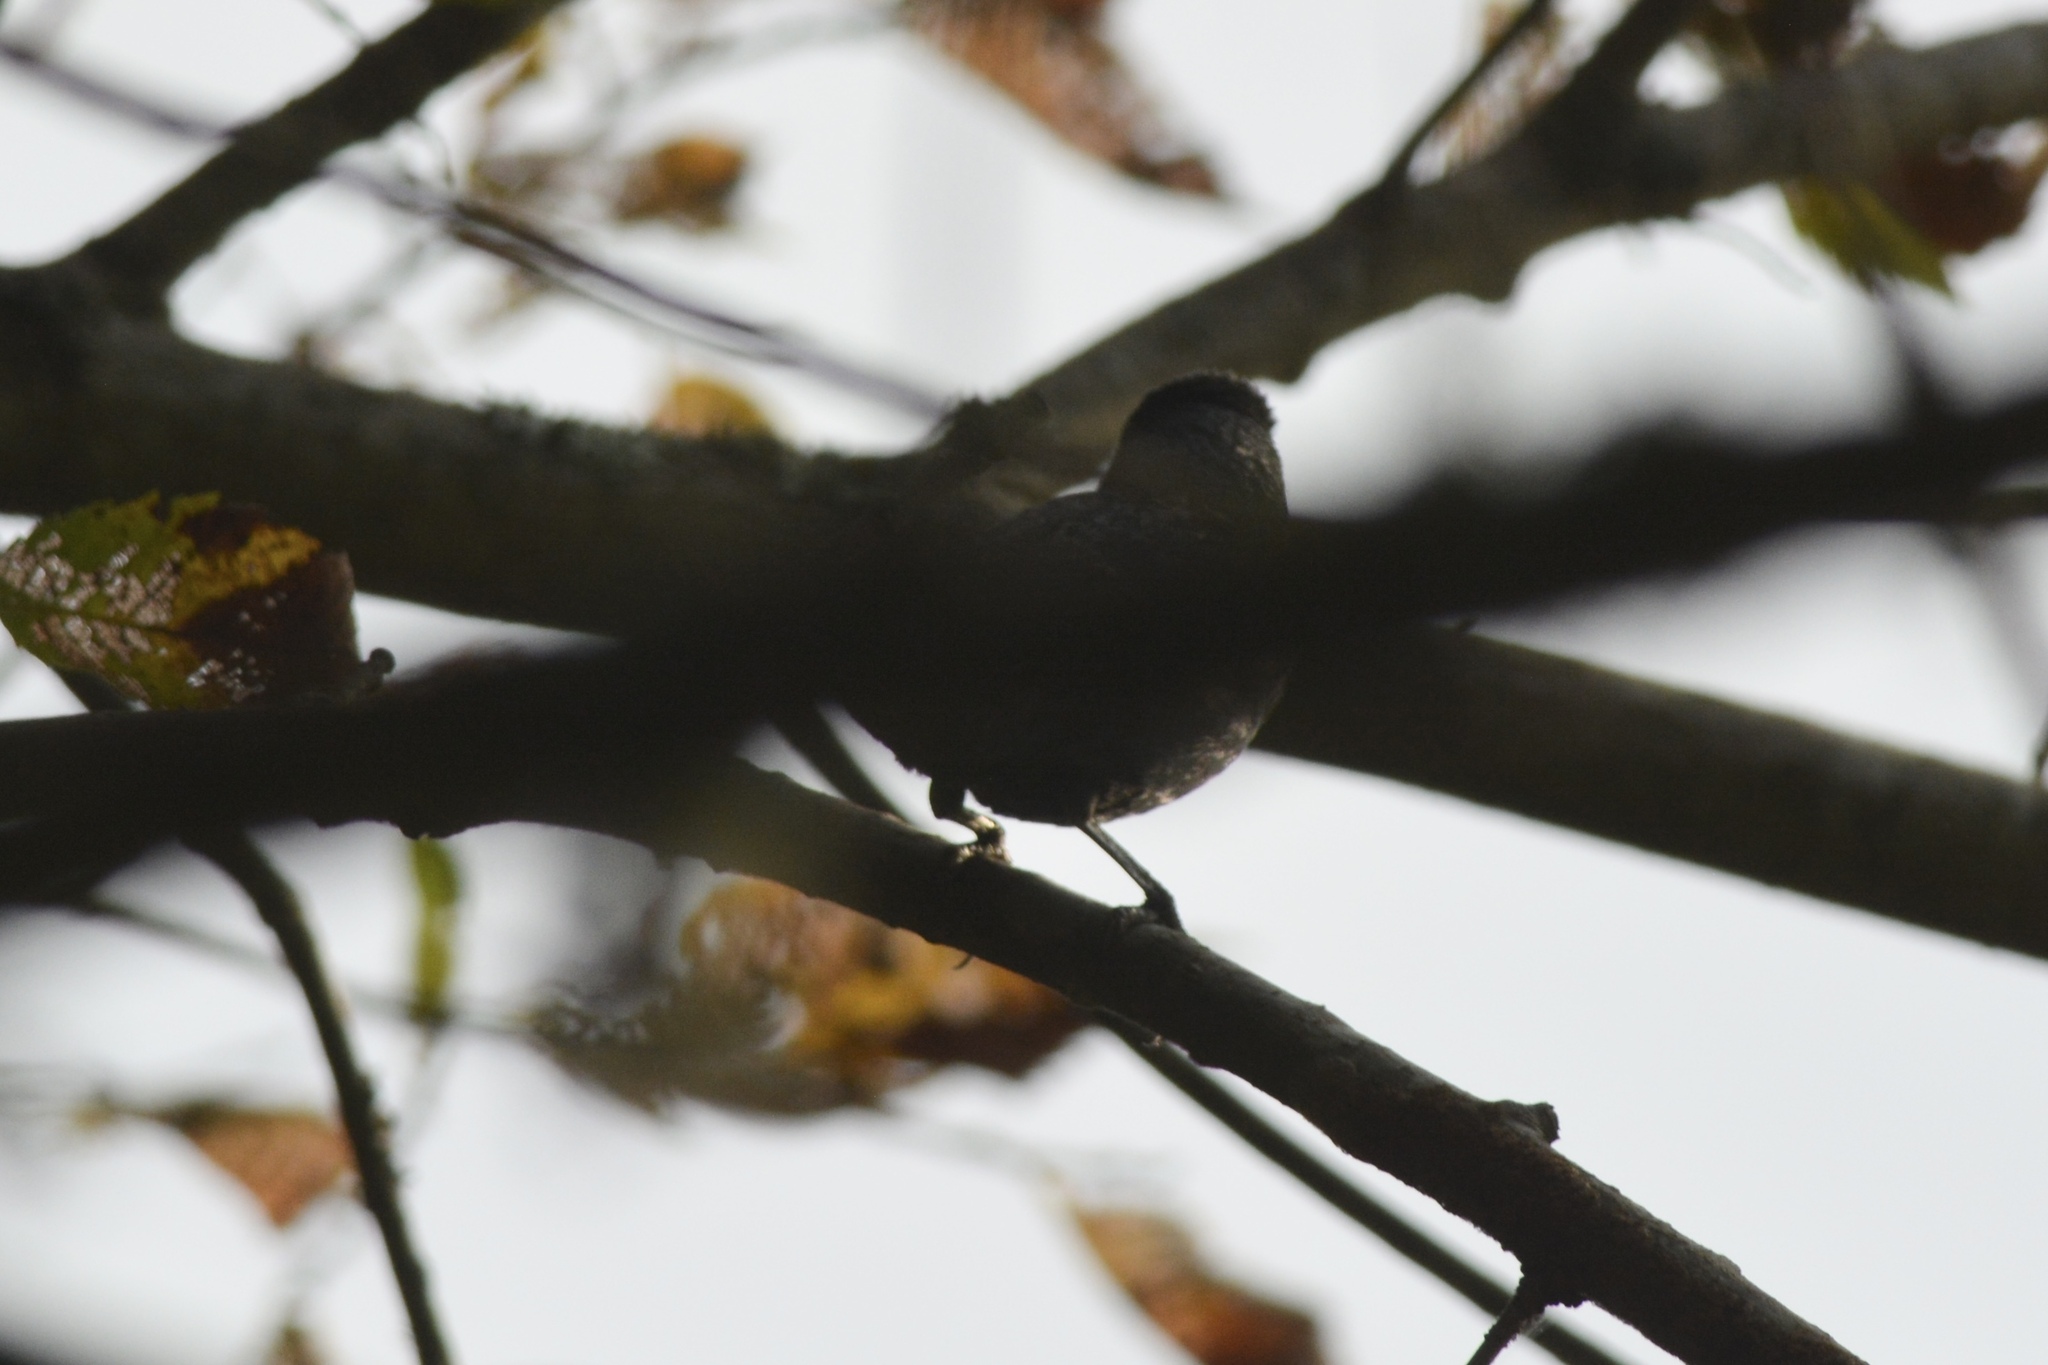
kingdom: Animalia
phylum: Chordata
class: Aves
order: Passeriformes
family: Mimidae
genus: Dumetella
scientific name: Dumetella carolinensis
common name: Gray catbird
